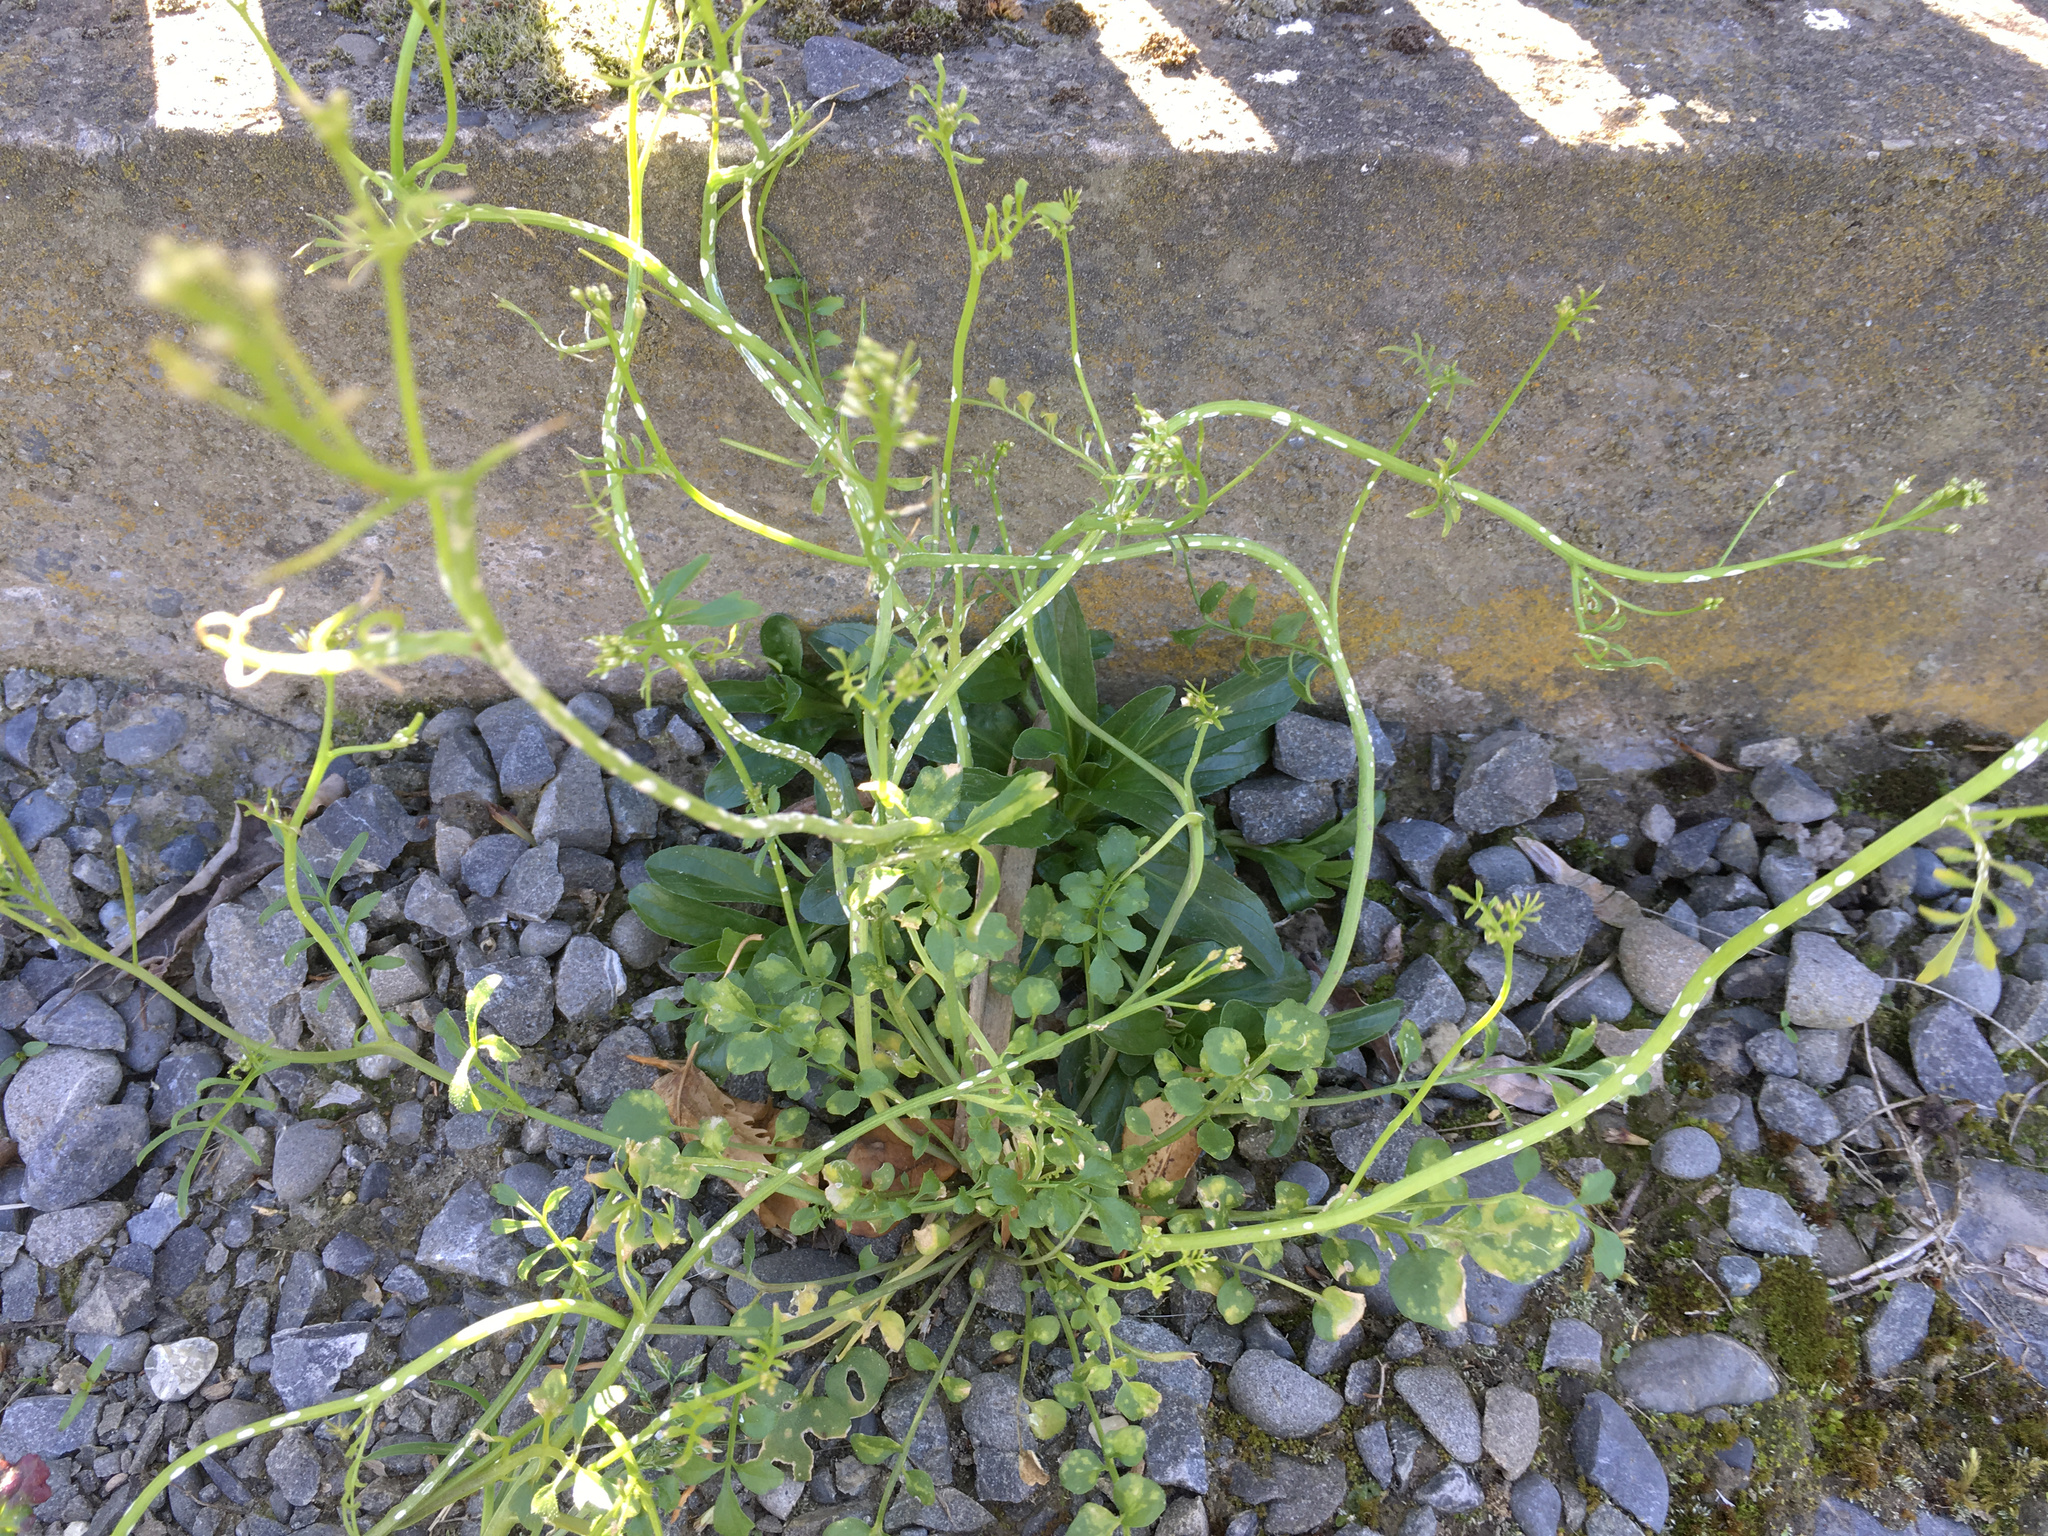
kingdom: Plantae
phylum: Tracheophyta
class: Magnoliopsida
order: Brassicales
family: Brassicaceae
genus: Cardamine
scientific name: Cardamine hirsuta
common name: Hairy bittercress
